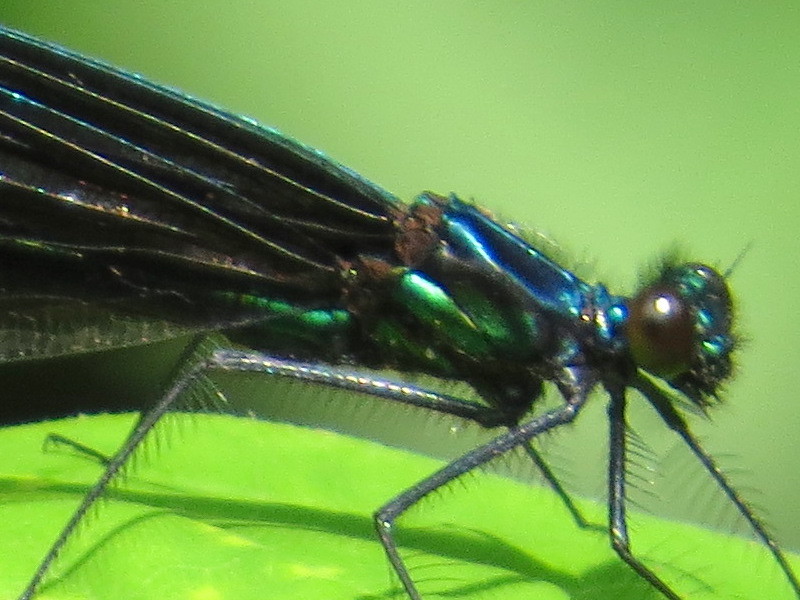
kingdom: Animalia
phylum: Arthropoda
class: Insecta
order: Odonata
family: Calopterygidae
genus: Calopteryx
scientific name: Calopteryx maculata
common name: Ebony jewelwing
